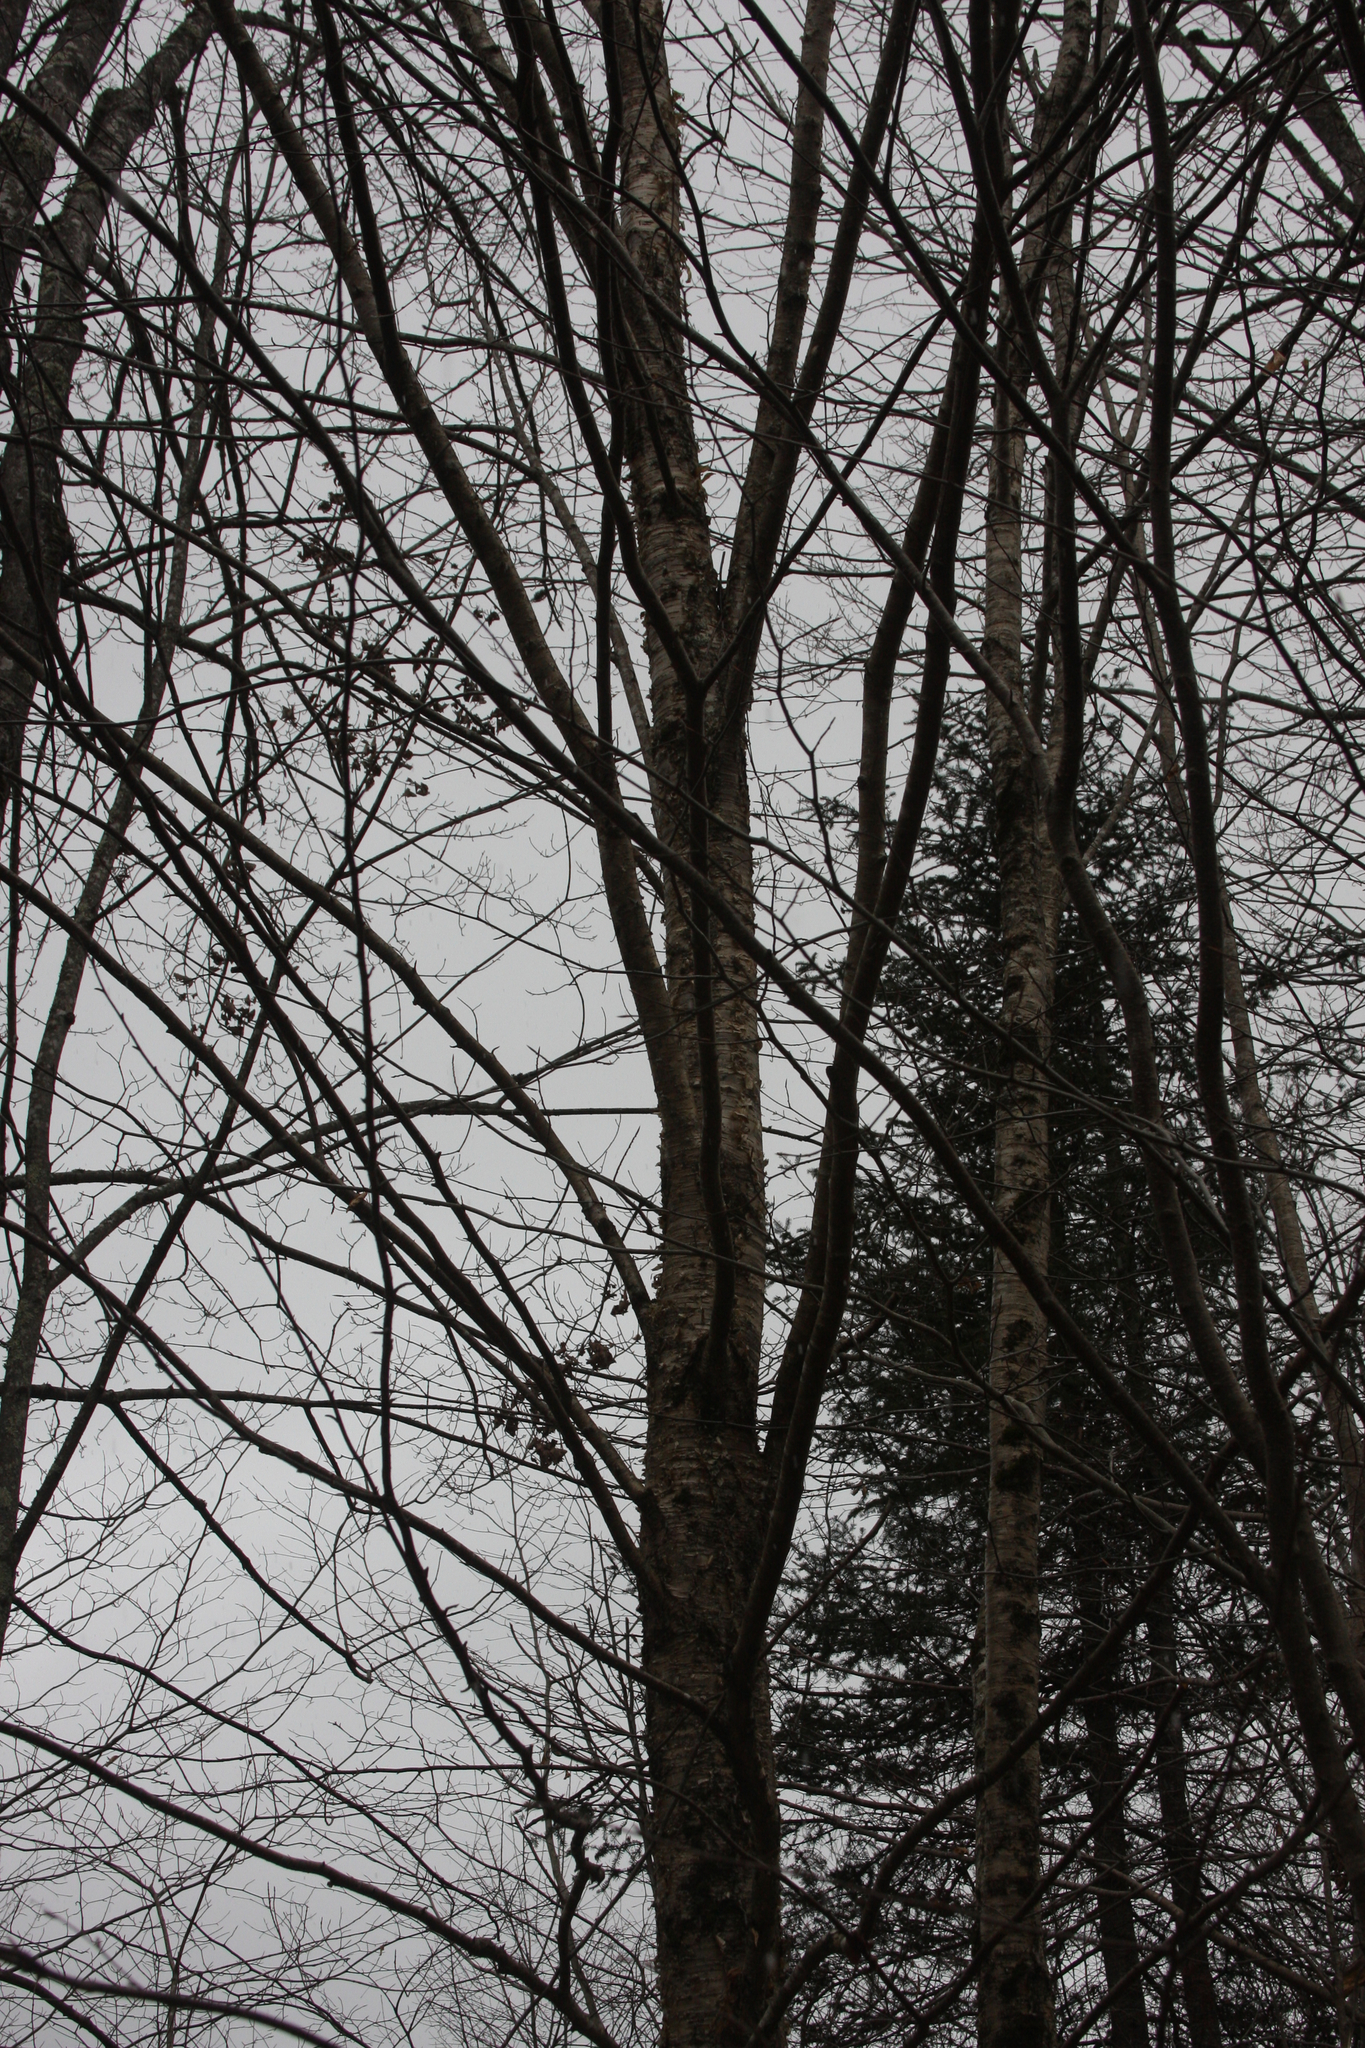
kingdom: Plantae
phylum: Tracheophyta
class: Magnoliopsida
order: Fagales
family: Betulaceae
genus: Betula
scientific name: Betula alleghaniensis
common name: Yellow birch
